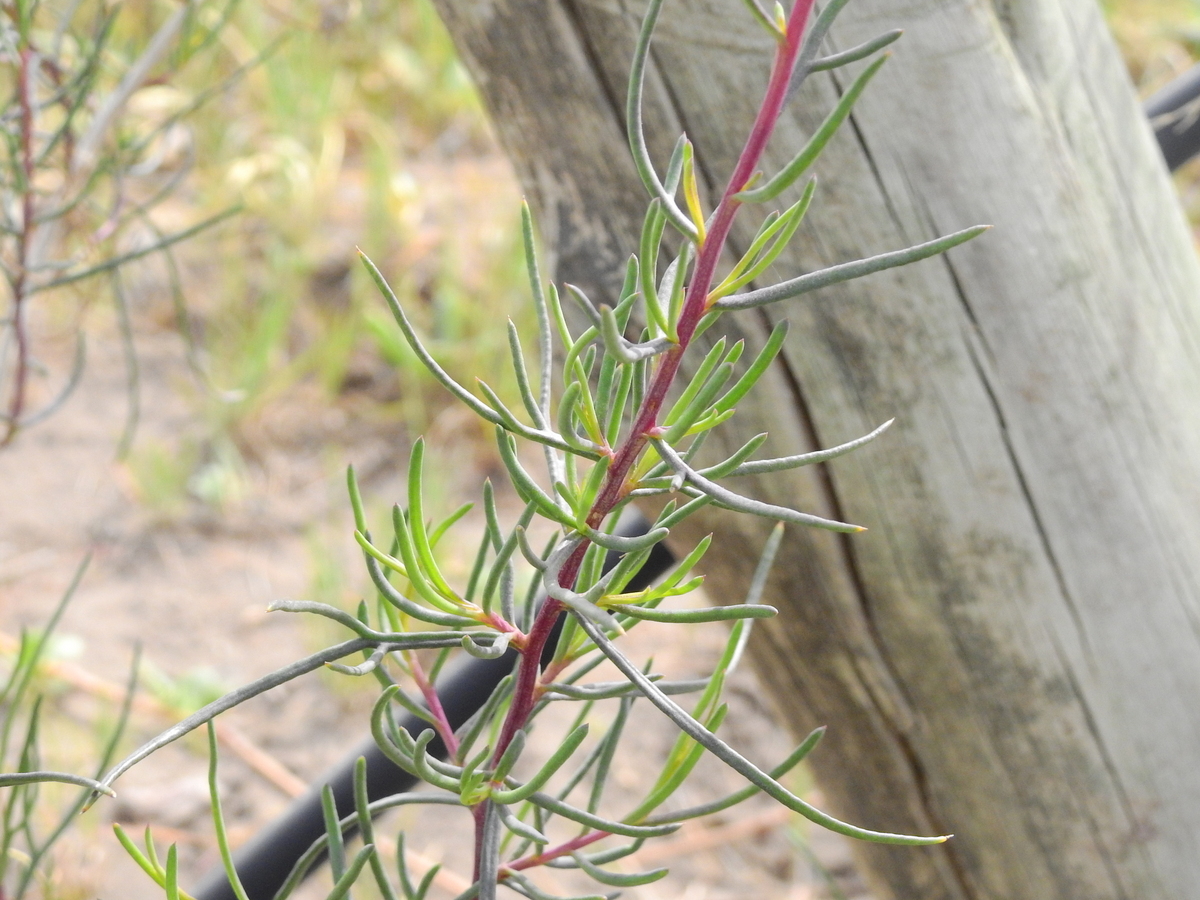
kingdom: Plantae
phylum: Tracheophyta
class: Magnoliopsida
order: Asterales
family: Asteraceae
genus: Senecio
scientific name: Senecio subulatus
